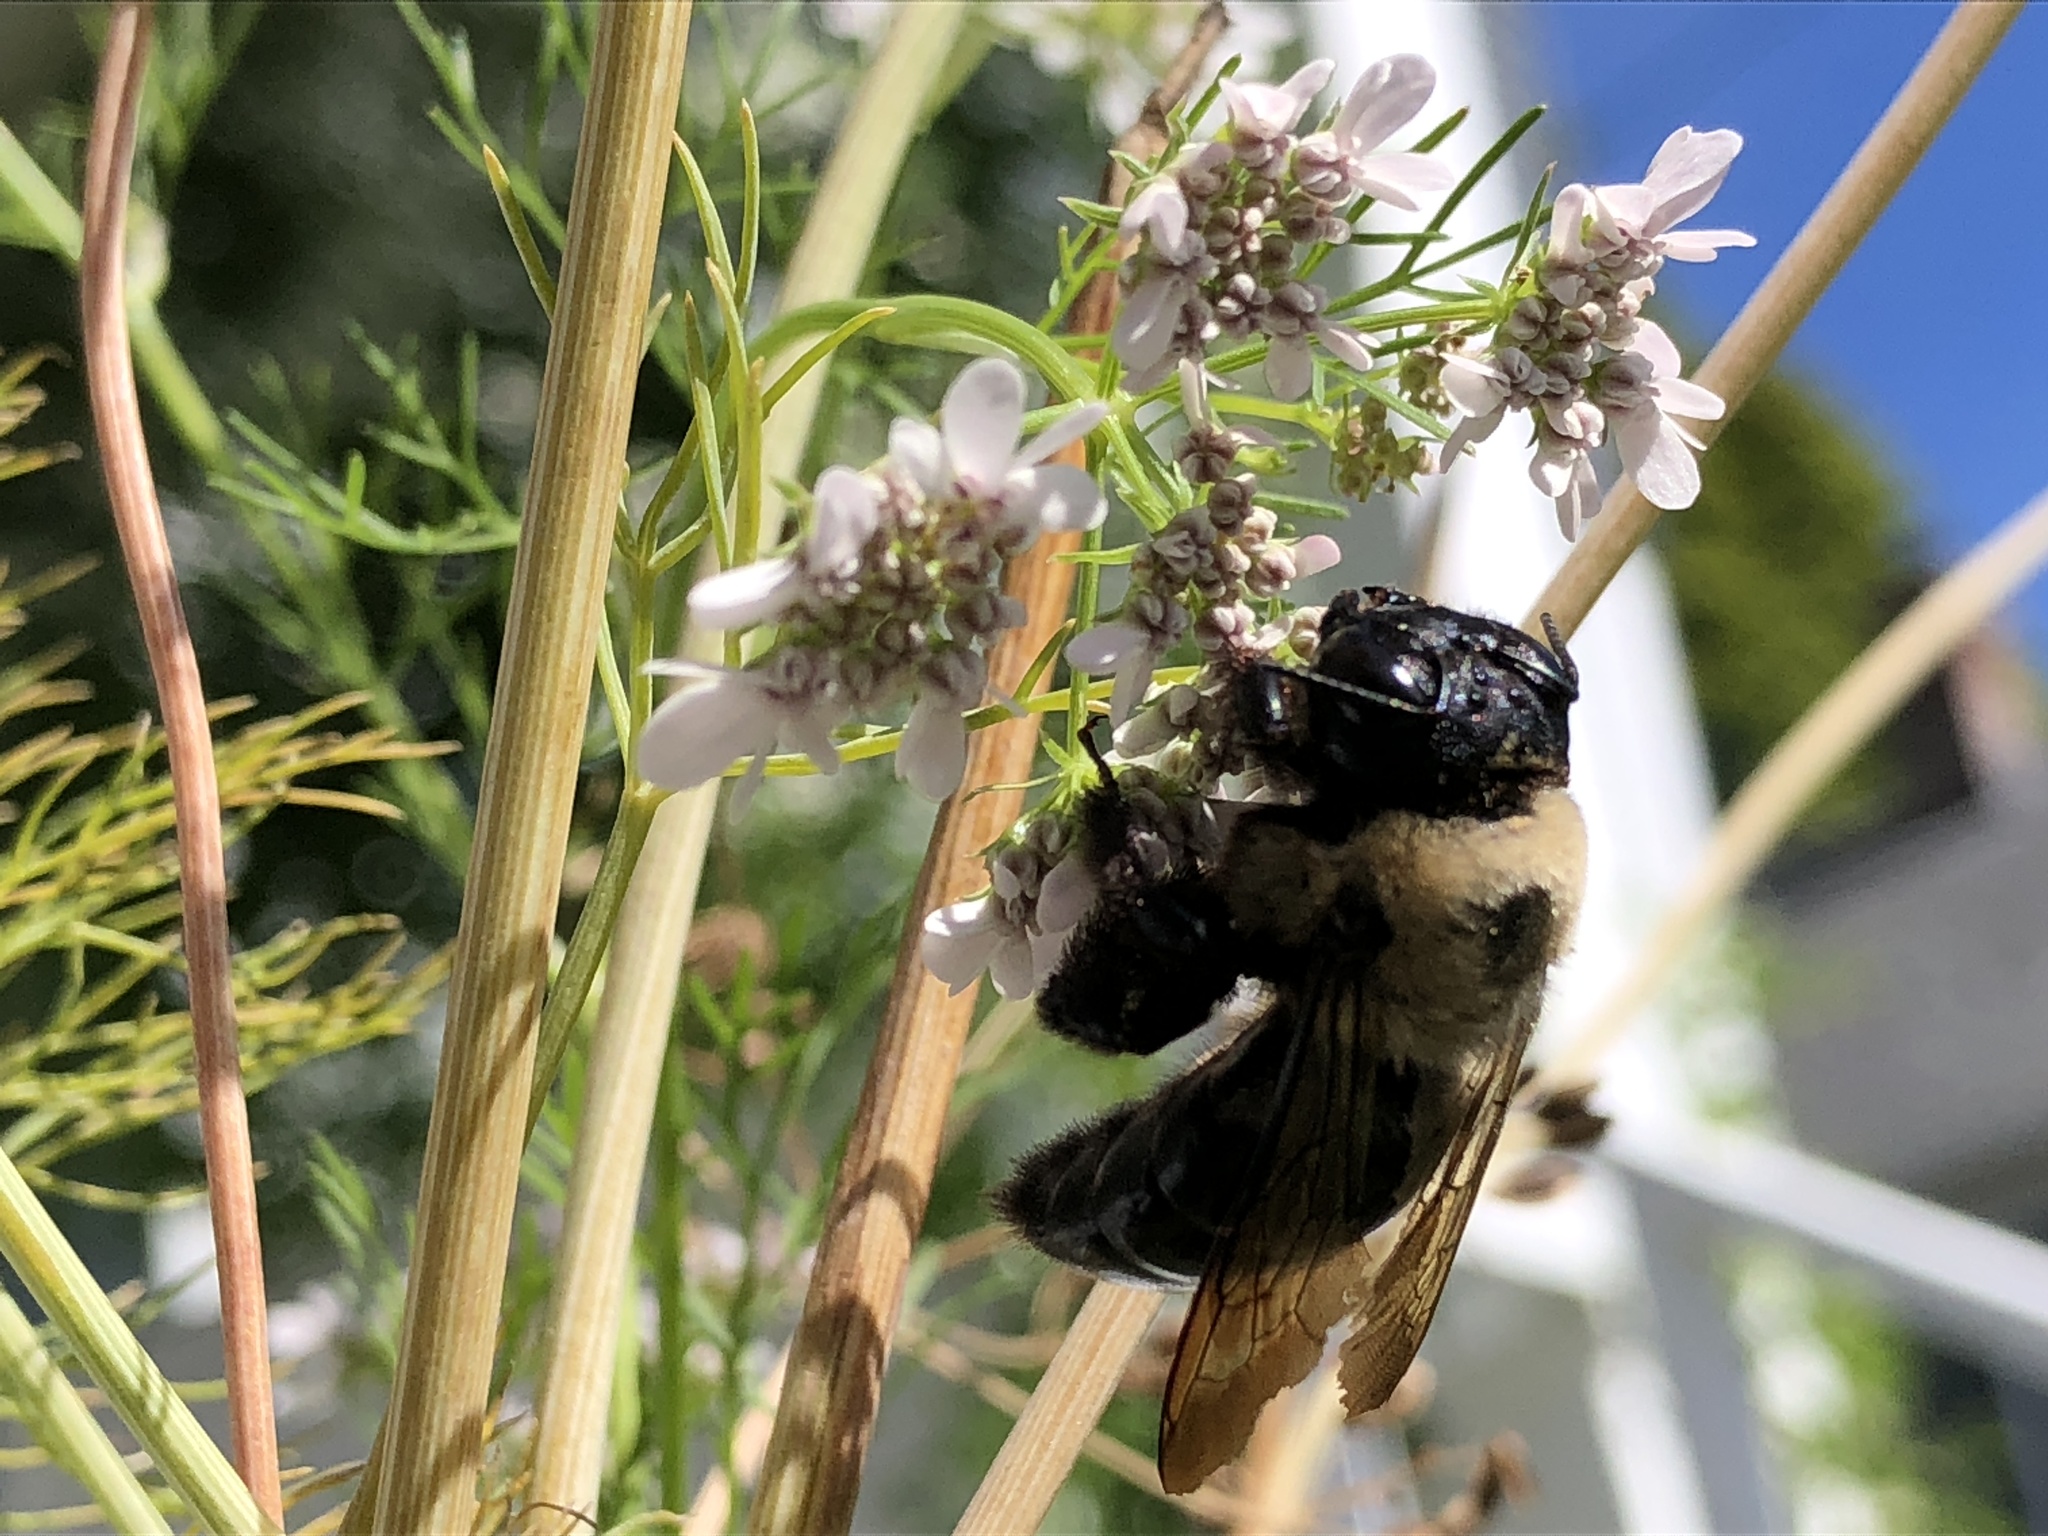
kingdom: Animalia
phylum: Arthropoda
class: Insecta
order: Hymenoptera
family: Apidae
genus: Xylocopa
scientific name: Xylocopa virginica
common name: Carpenter bee
